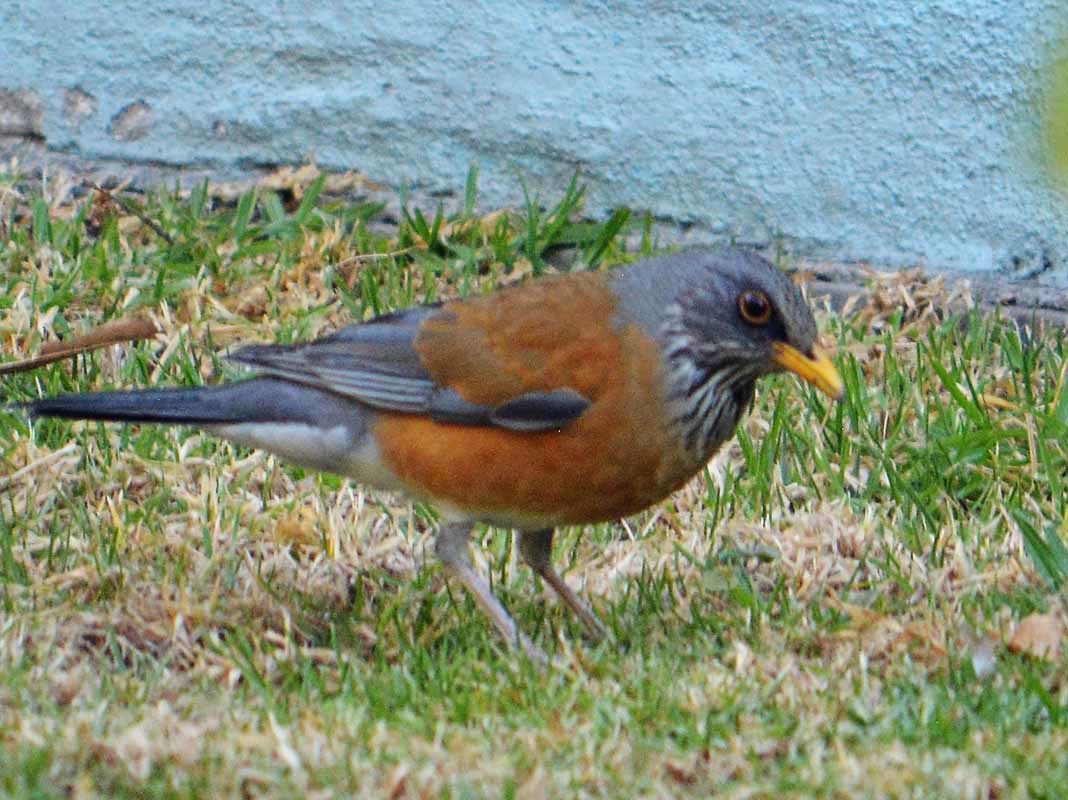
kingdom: Animalia
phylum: Chordata
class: Aves
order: Passeriformes
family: Turdidae
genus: Turdus
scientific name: Turdus rufopalliatus
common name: Rufous-backed robin
